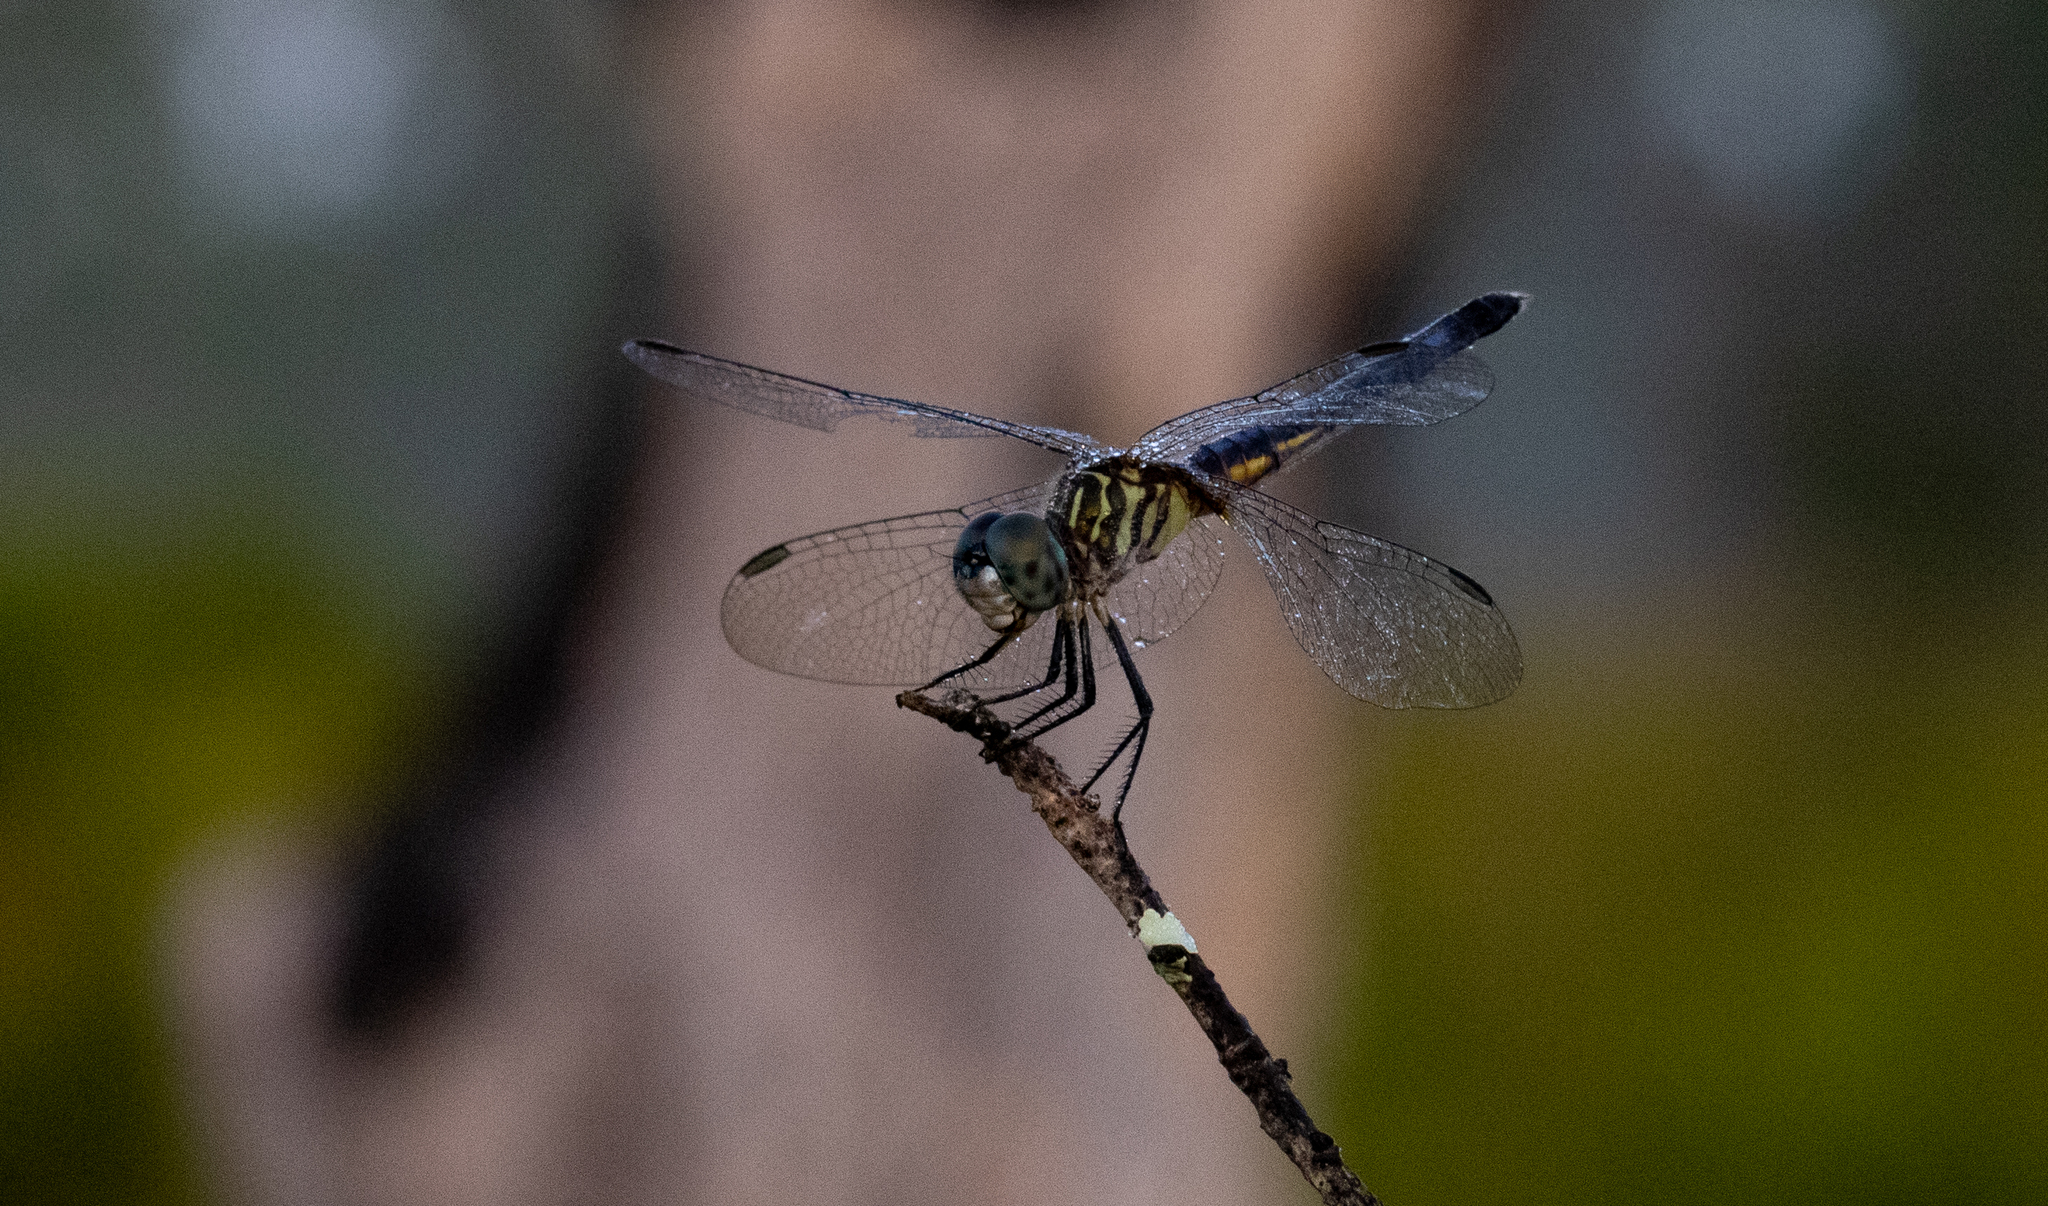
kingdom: Animalia
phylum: Arthropoda
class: Insecta
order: Odonata
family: Libellulidae
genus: Pachydiplax
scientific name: Pachydiplax longipennis
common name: Blue dasher
